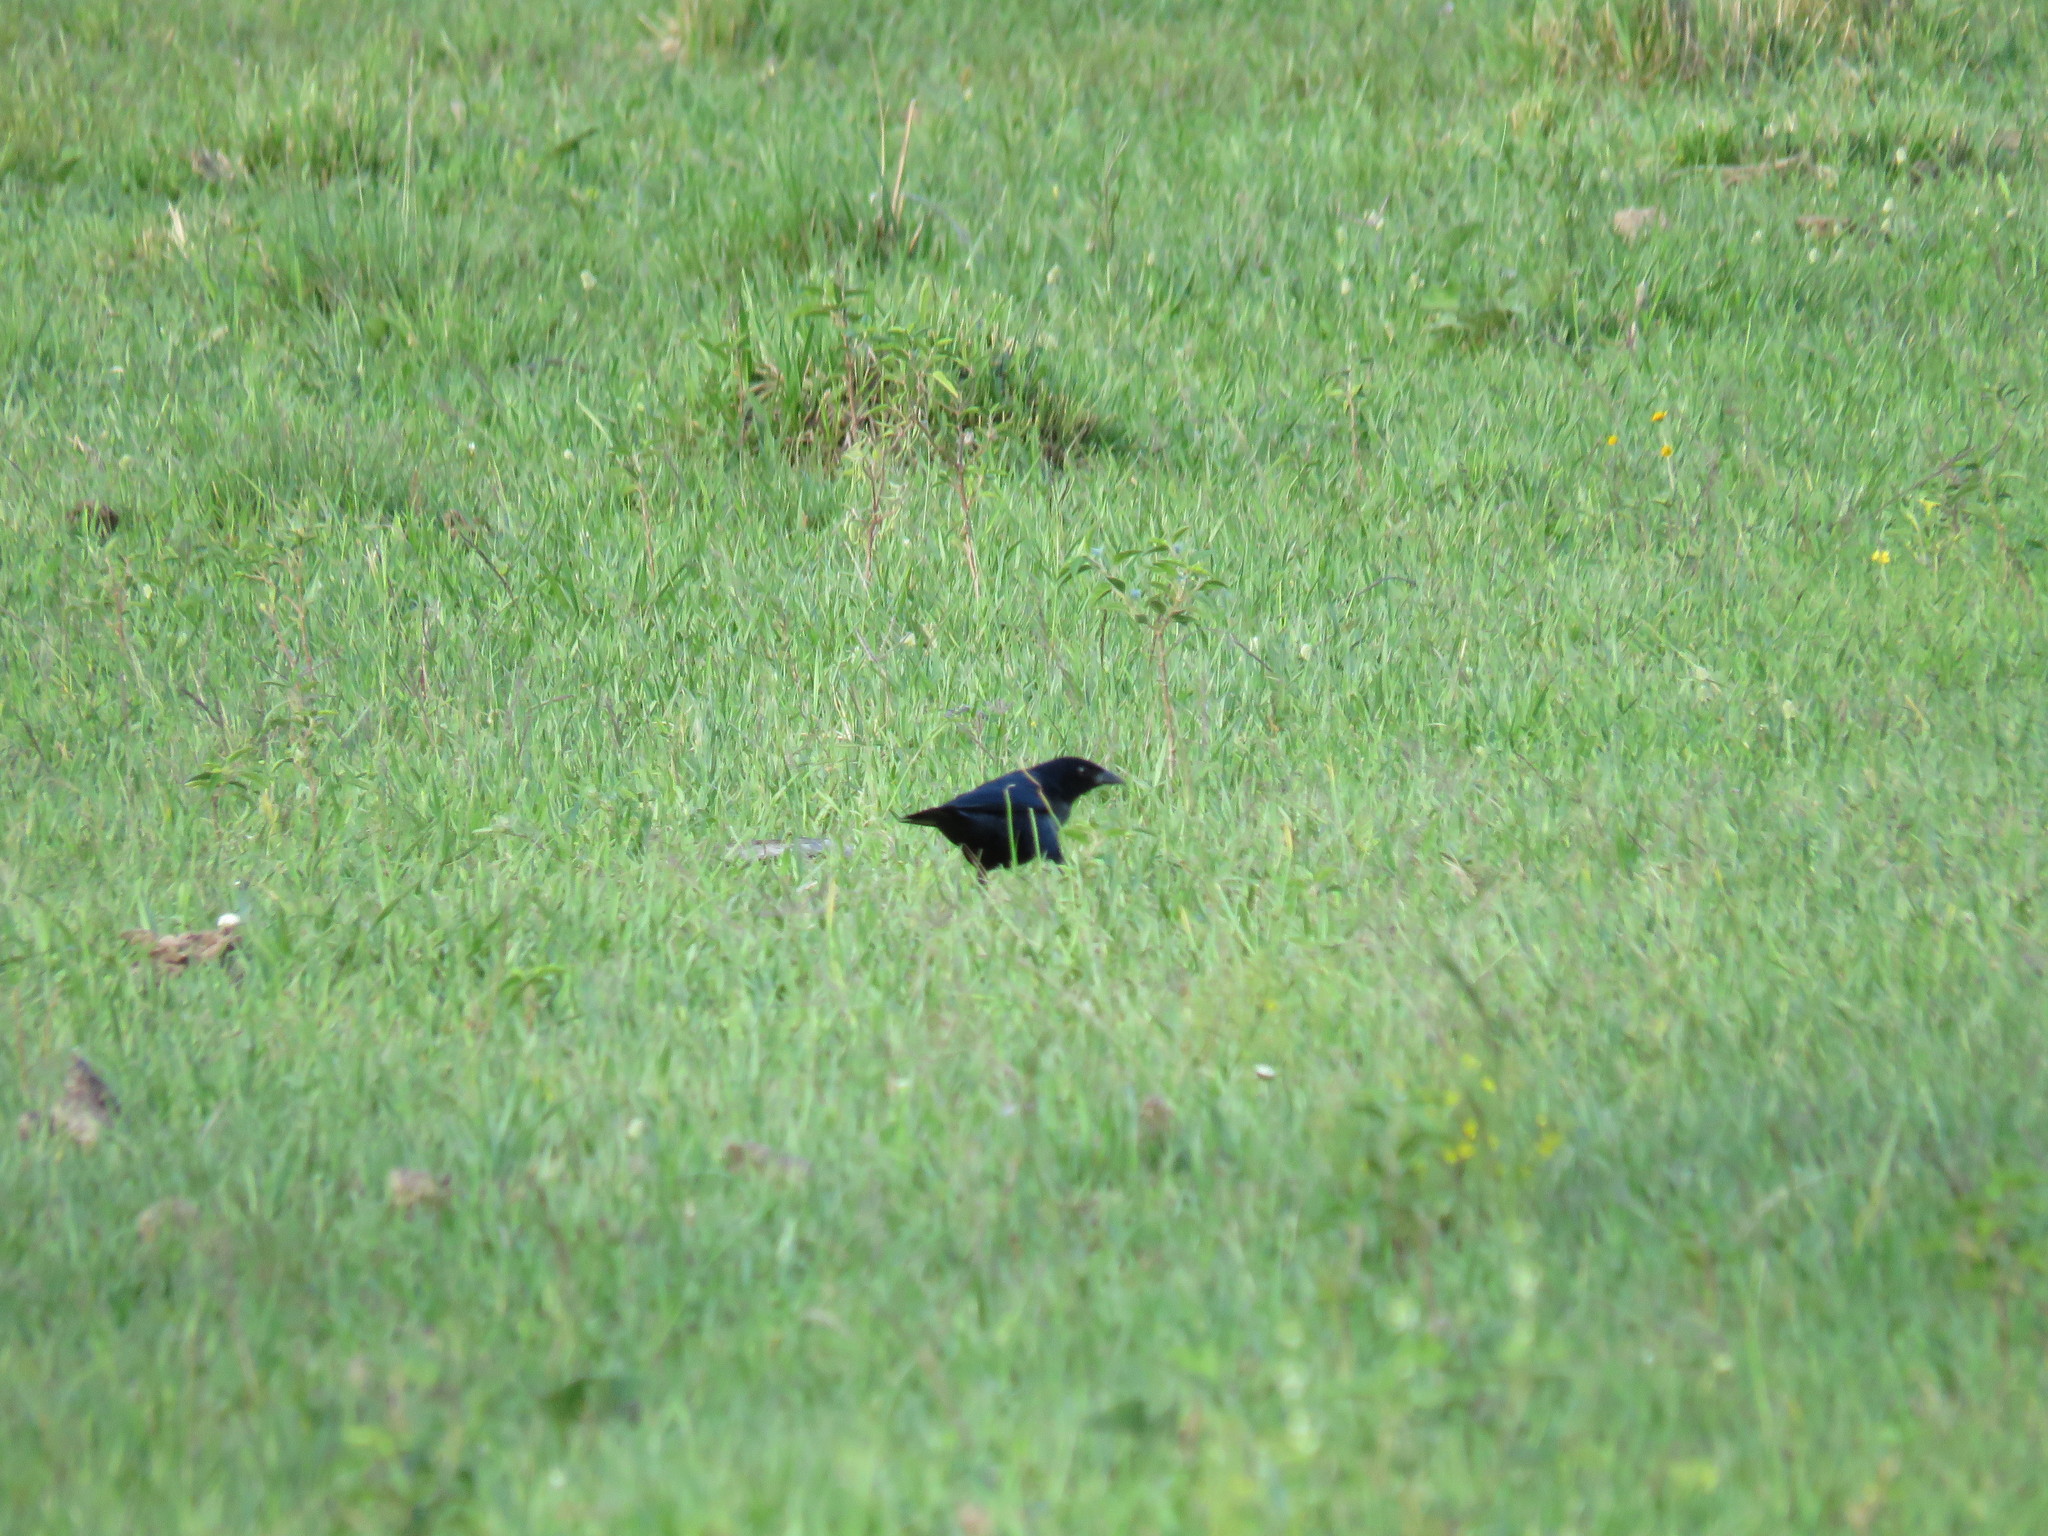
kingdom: Animalia
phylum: Chordata
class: Aves
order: Passeriformes
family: Icteridae
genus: Molothrus
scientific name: Molothrus bonariensis
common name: Shiny cowbird
